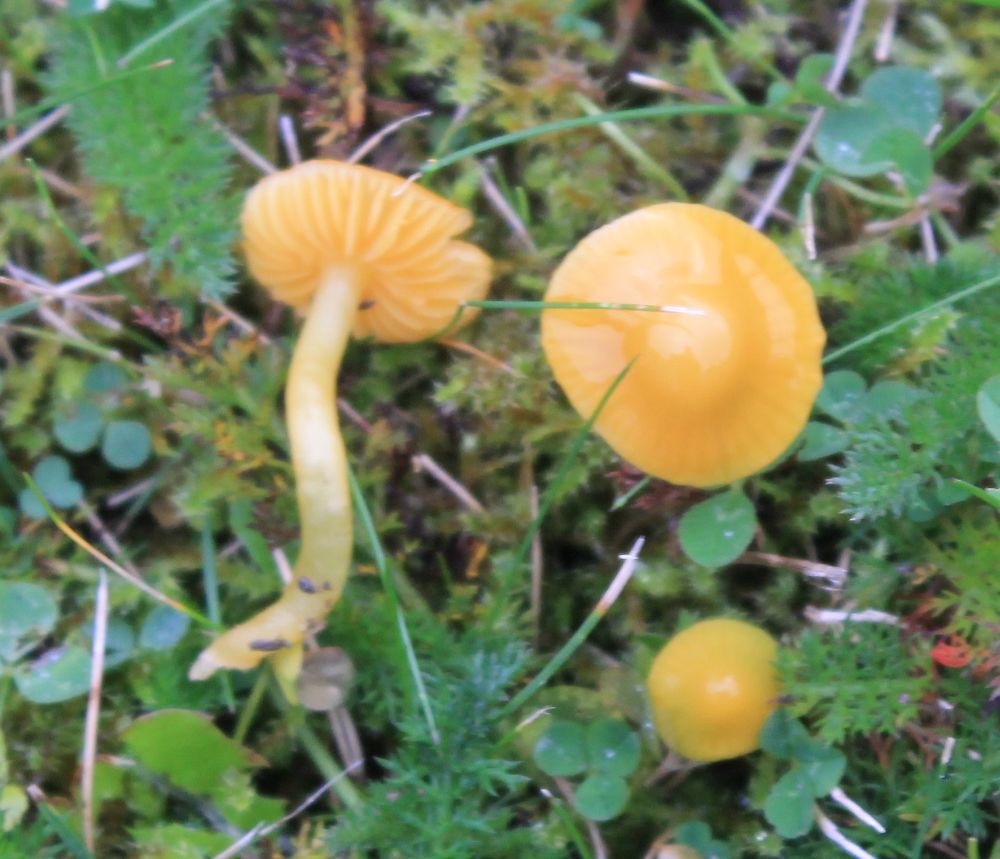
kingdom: Fungi
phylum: Basidiomycota
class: Agaricomycetes
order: Agaricales
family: Hygrophoraceae
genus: Gliophorus
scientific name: Gliophorus psittacinus
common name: Parrot wax-cap
